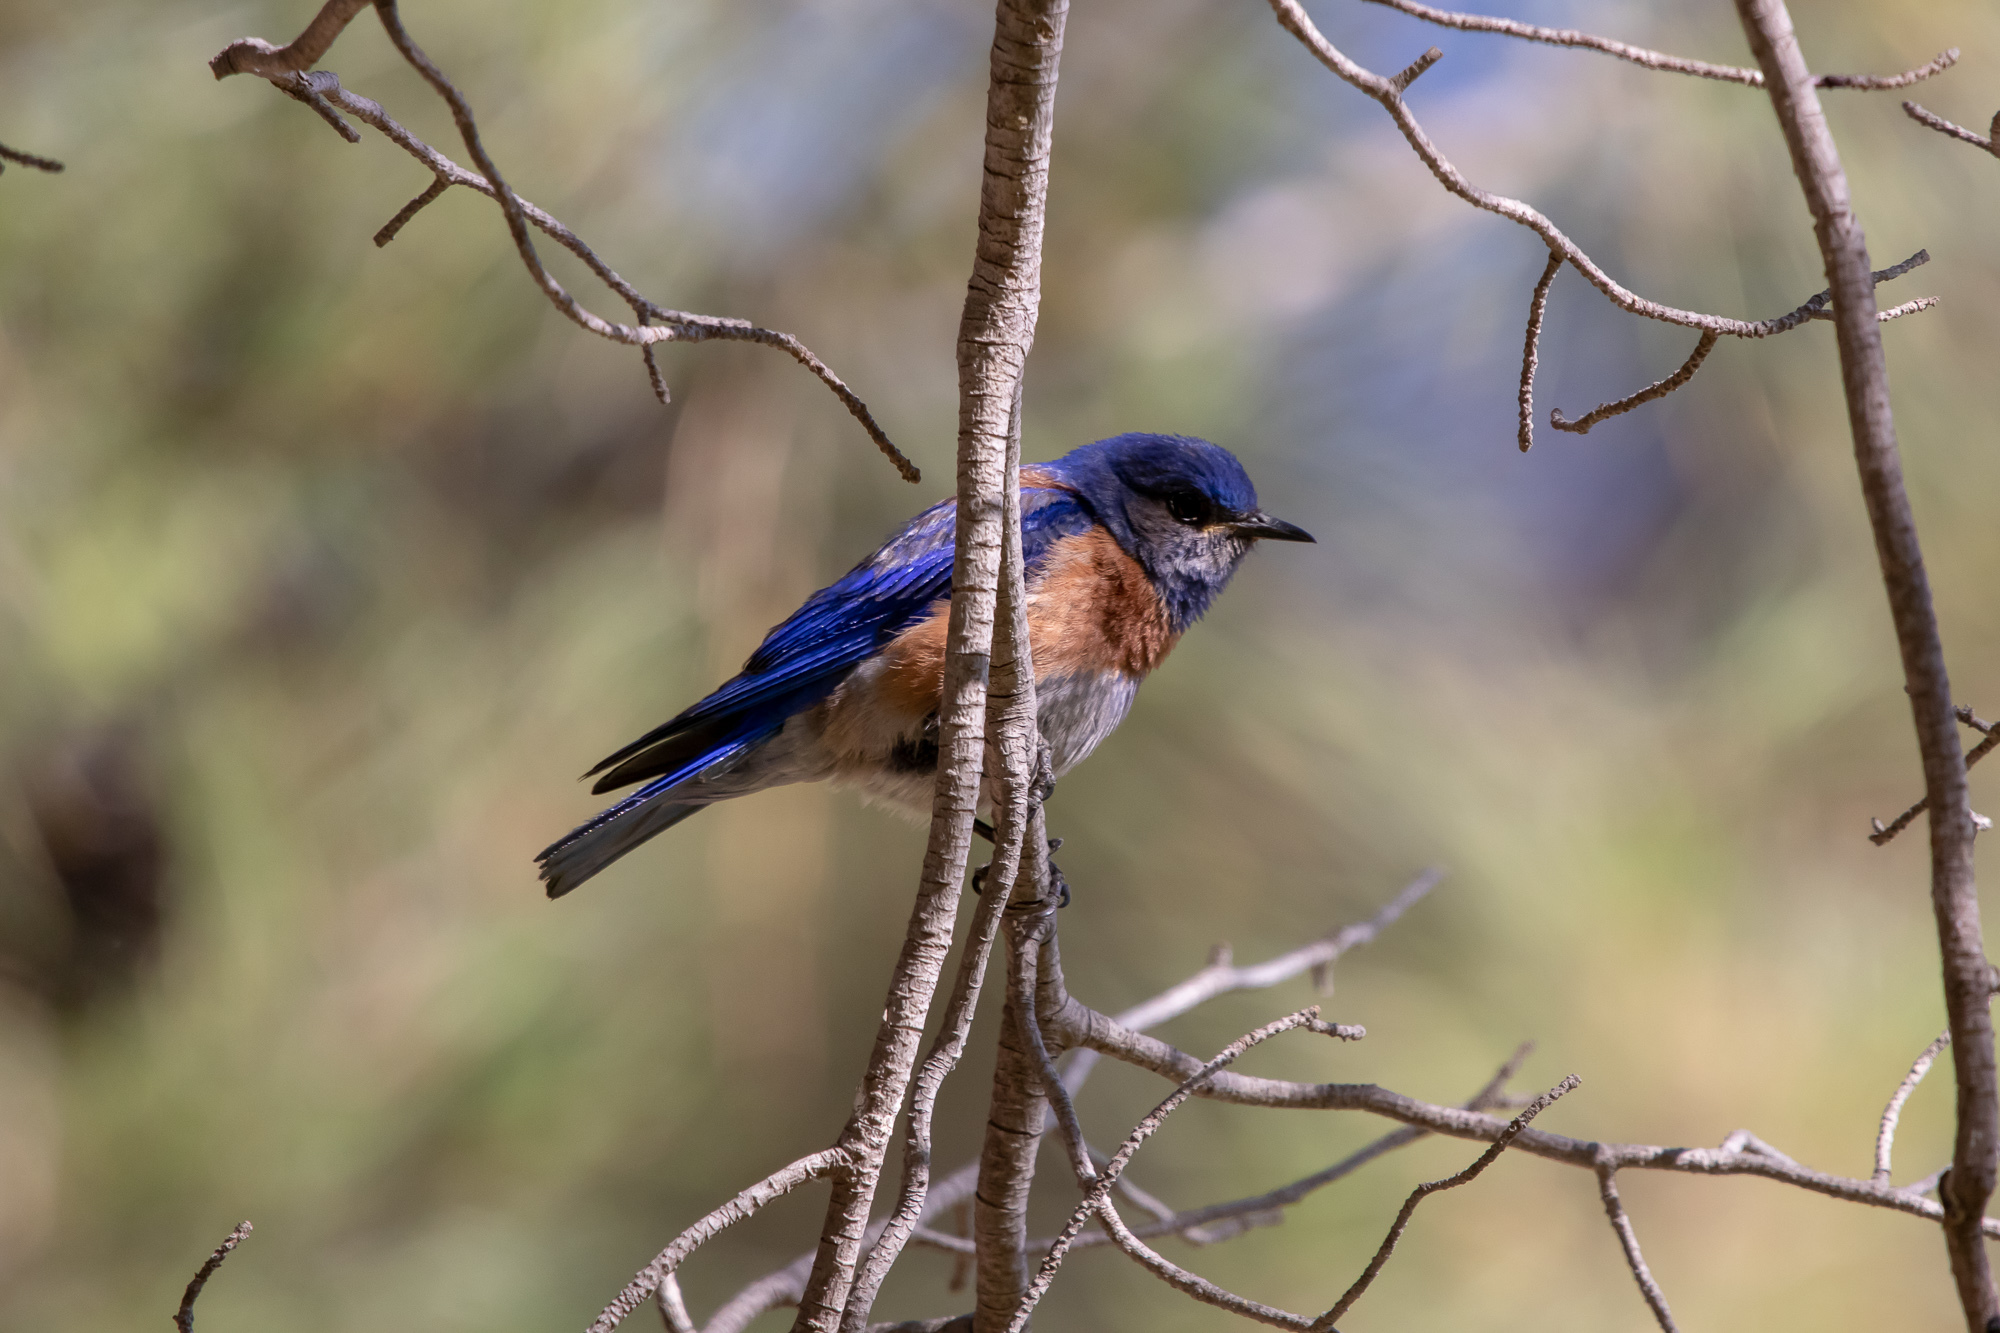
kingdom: Animalia
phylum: Chordata
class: Aves
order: Passeriformes
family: Turdidae
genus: Sialia
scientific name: Sialia mexicana
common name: Western bluebird
